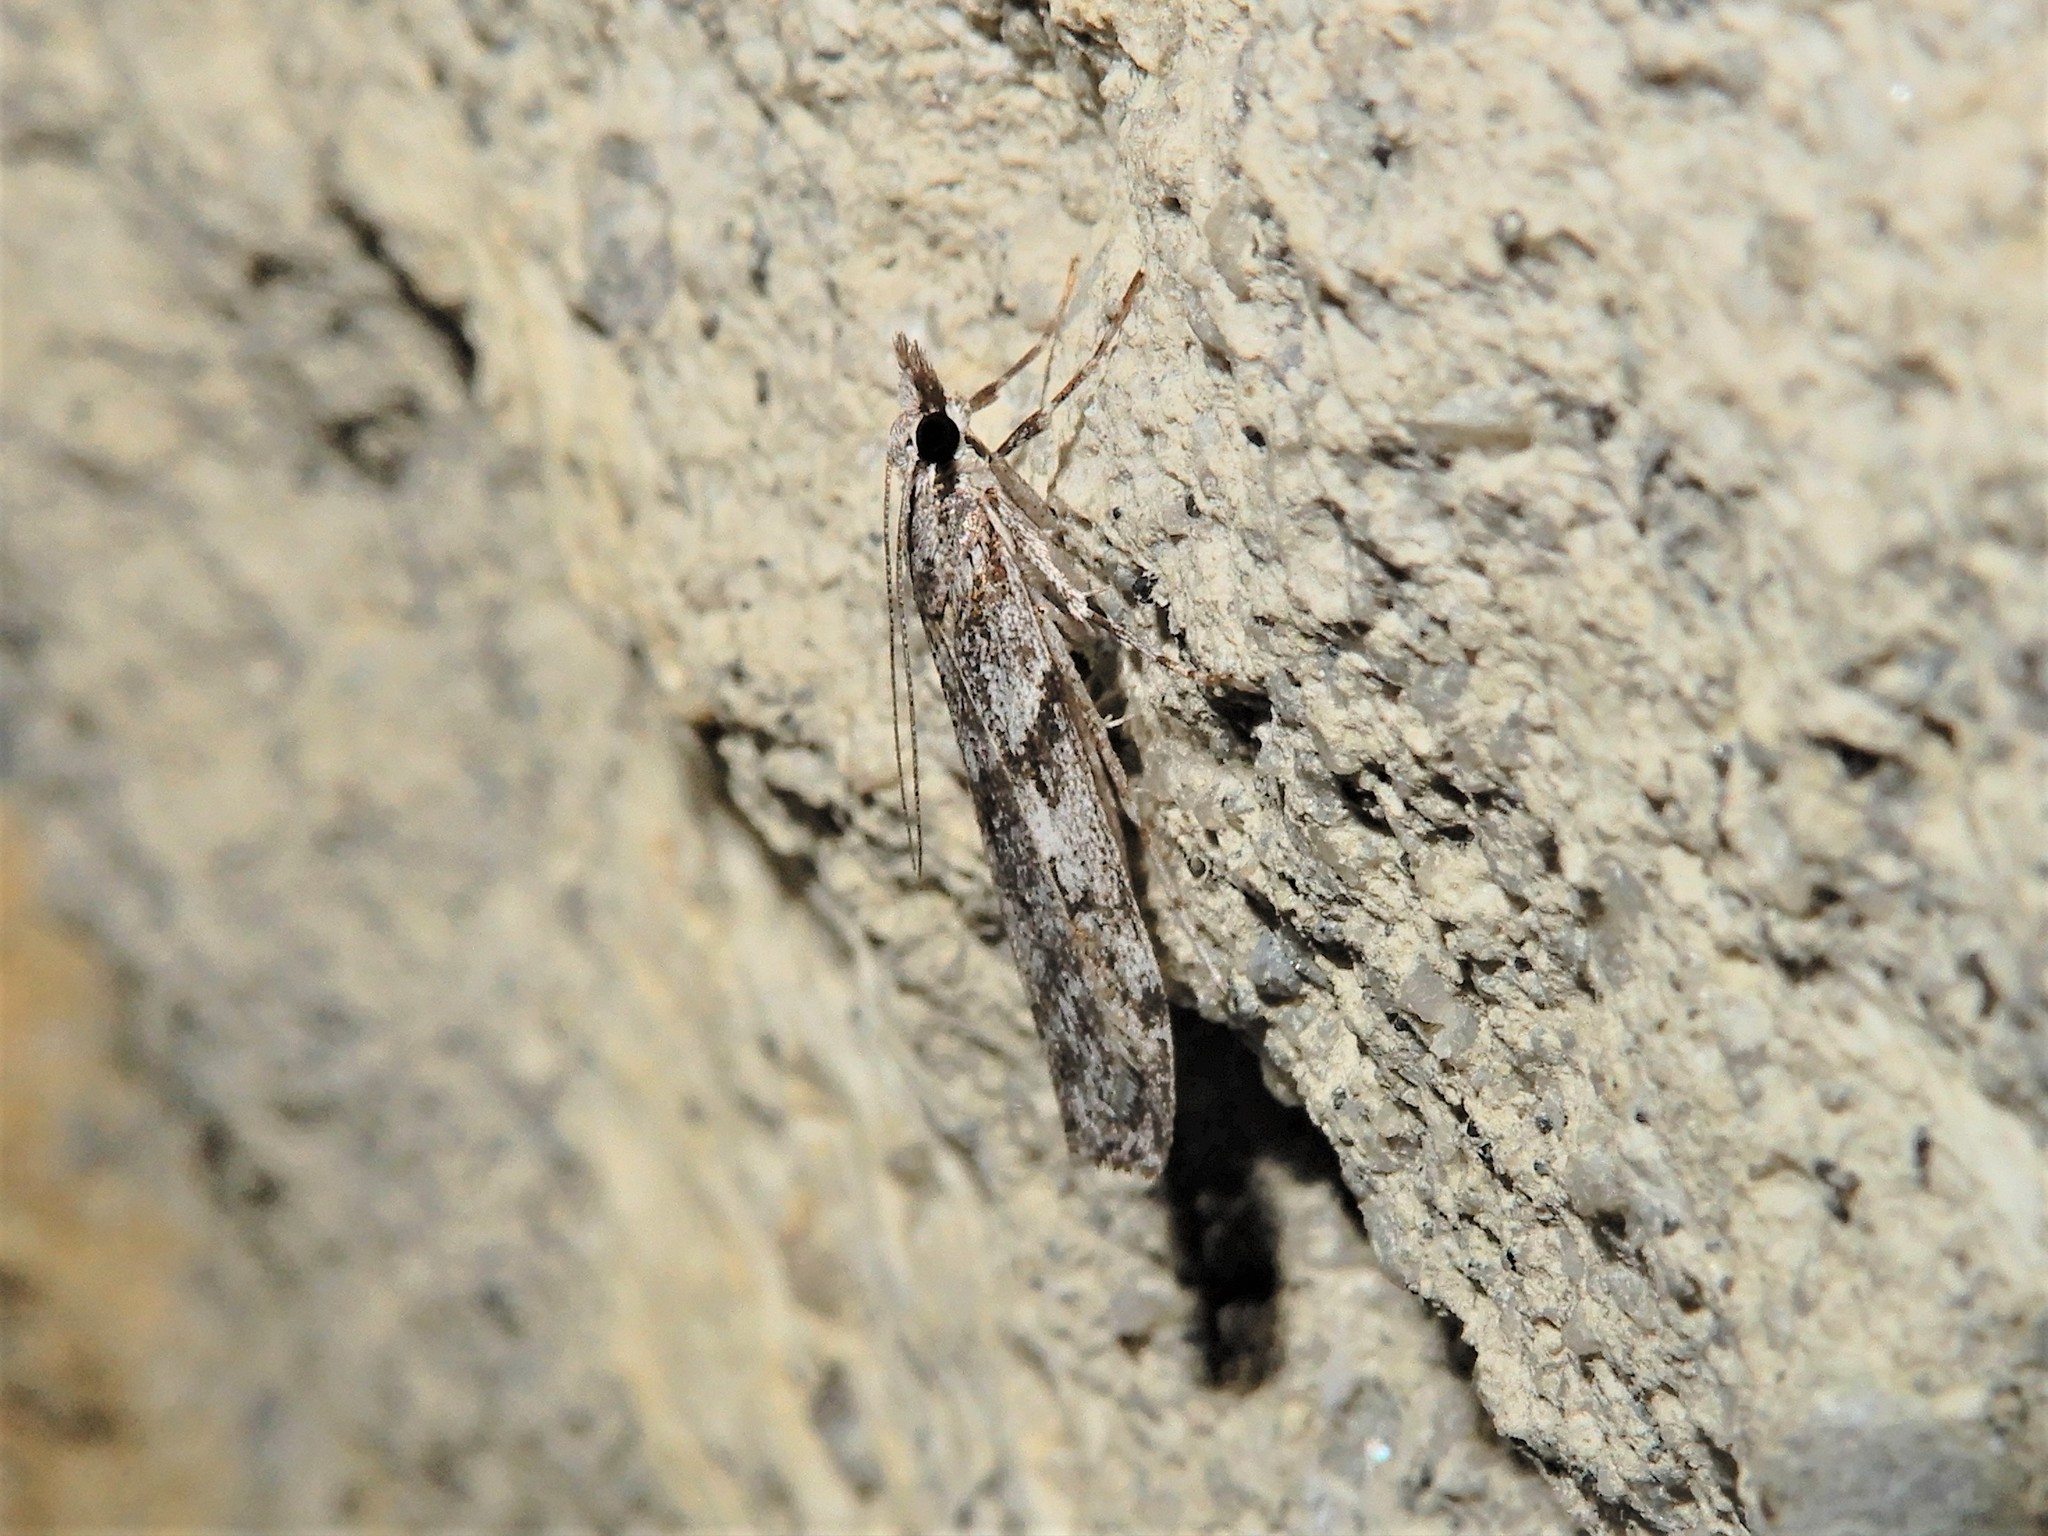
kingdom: Animalia
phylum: Arthropoda
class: Insecta
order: Lepidoptera
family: Crambidae
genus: Scoparia
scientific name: Scoparia halopis
